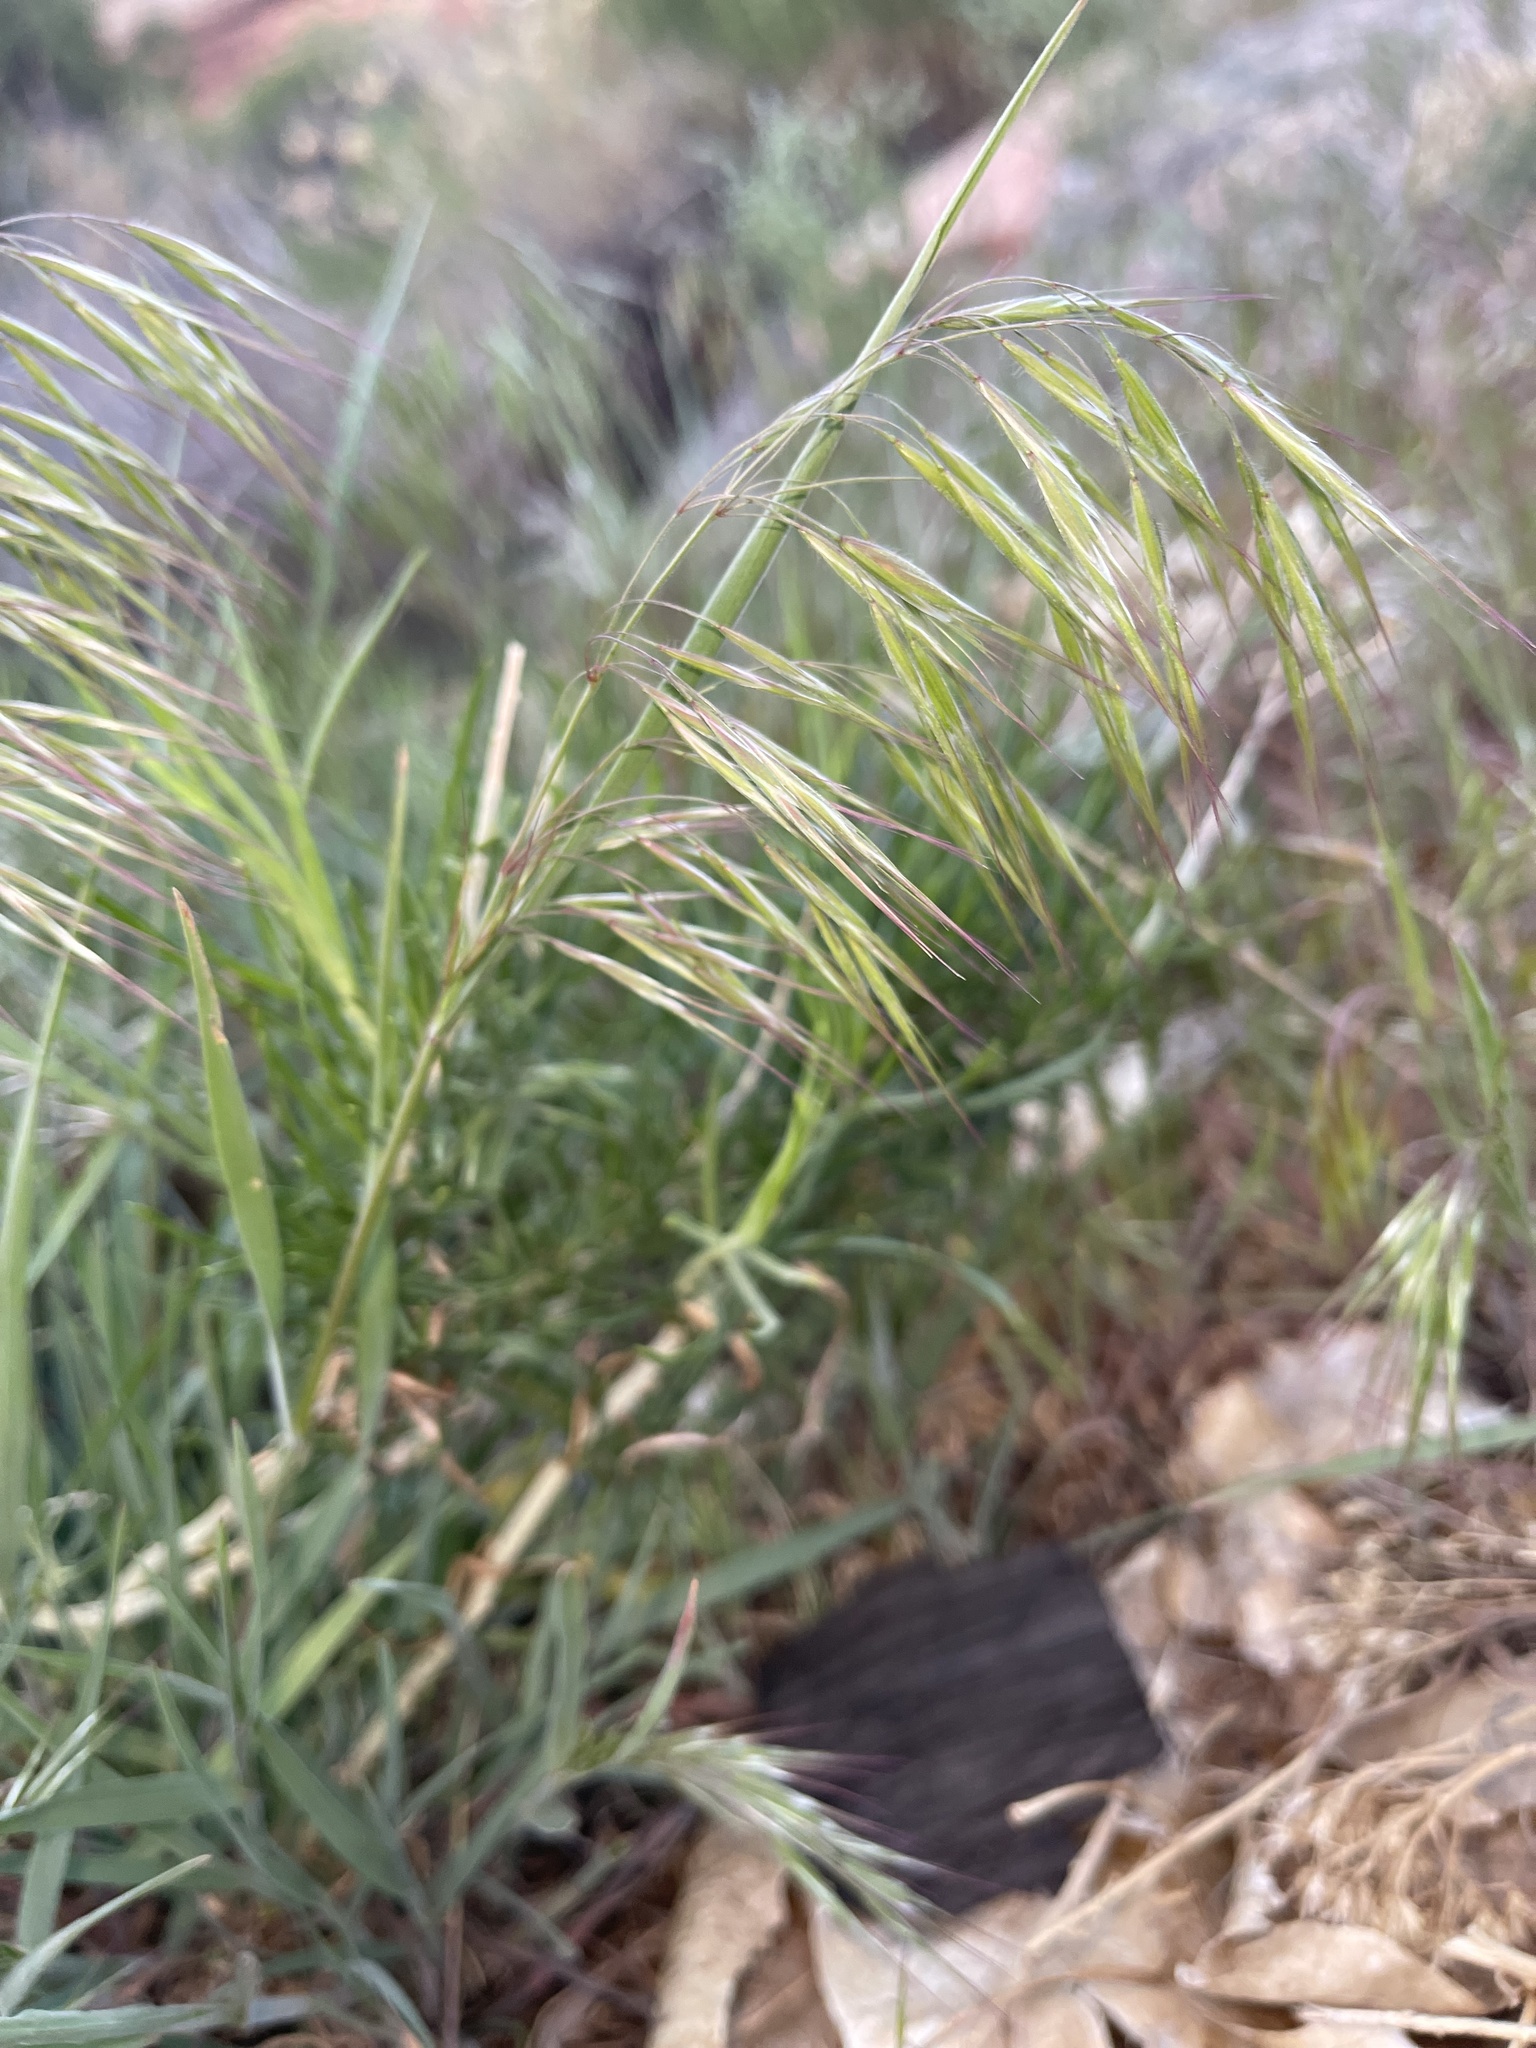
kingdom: Plantae
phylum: Tracheophyta
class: Liliopsida
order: Poales
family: Poaceae
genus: Bromus
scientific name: Bromus tectorum
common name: Cheatgrass
